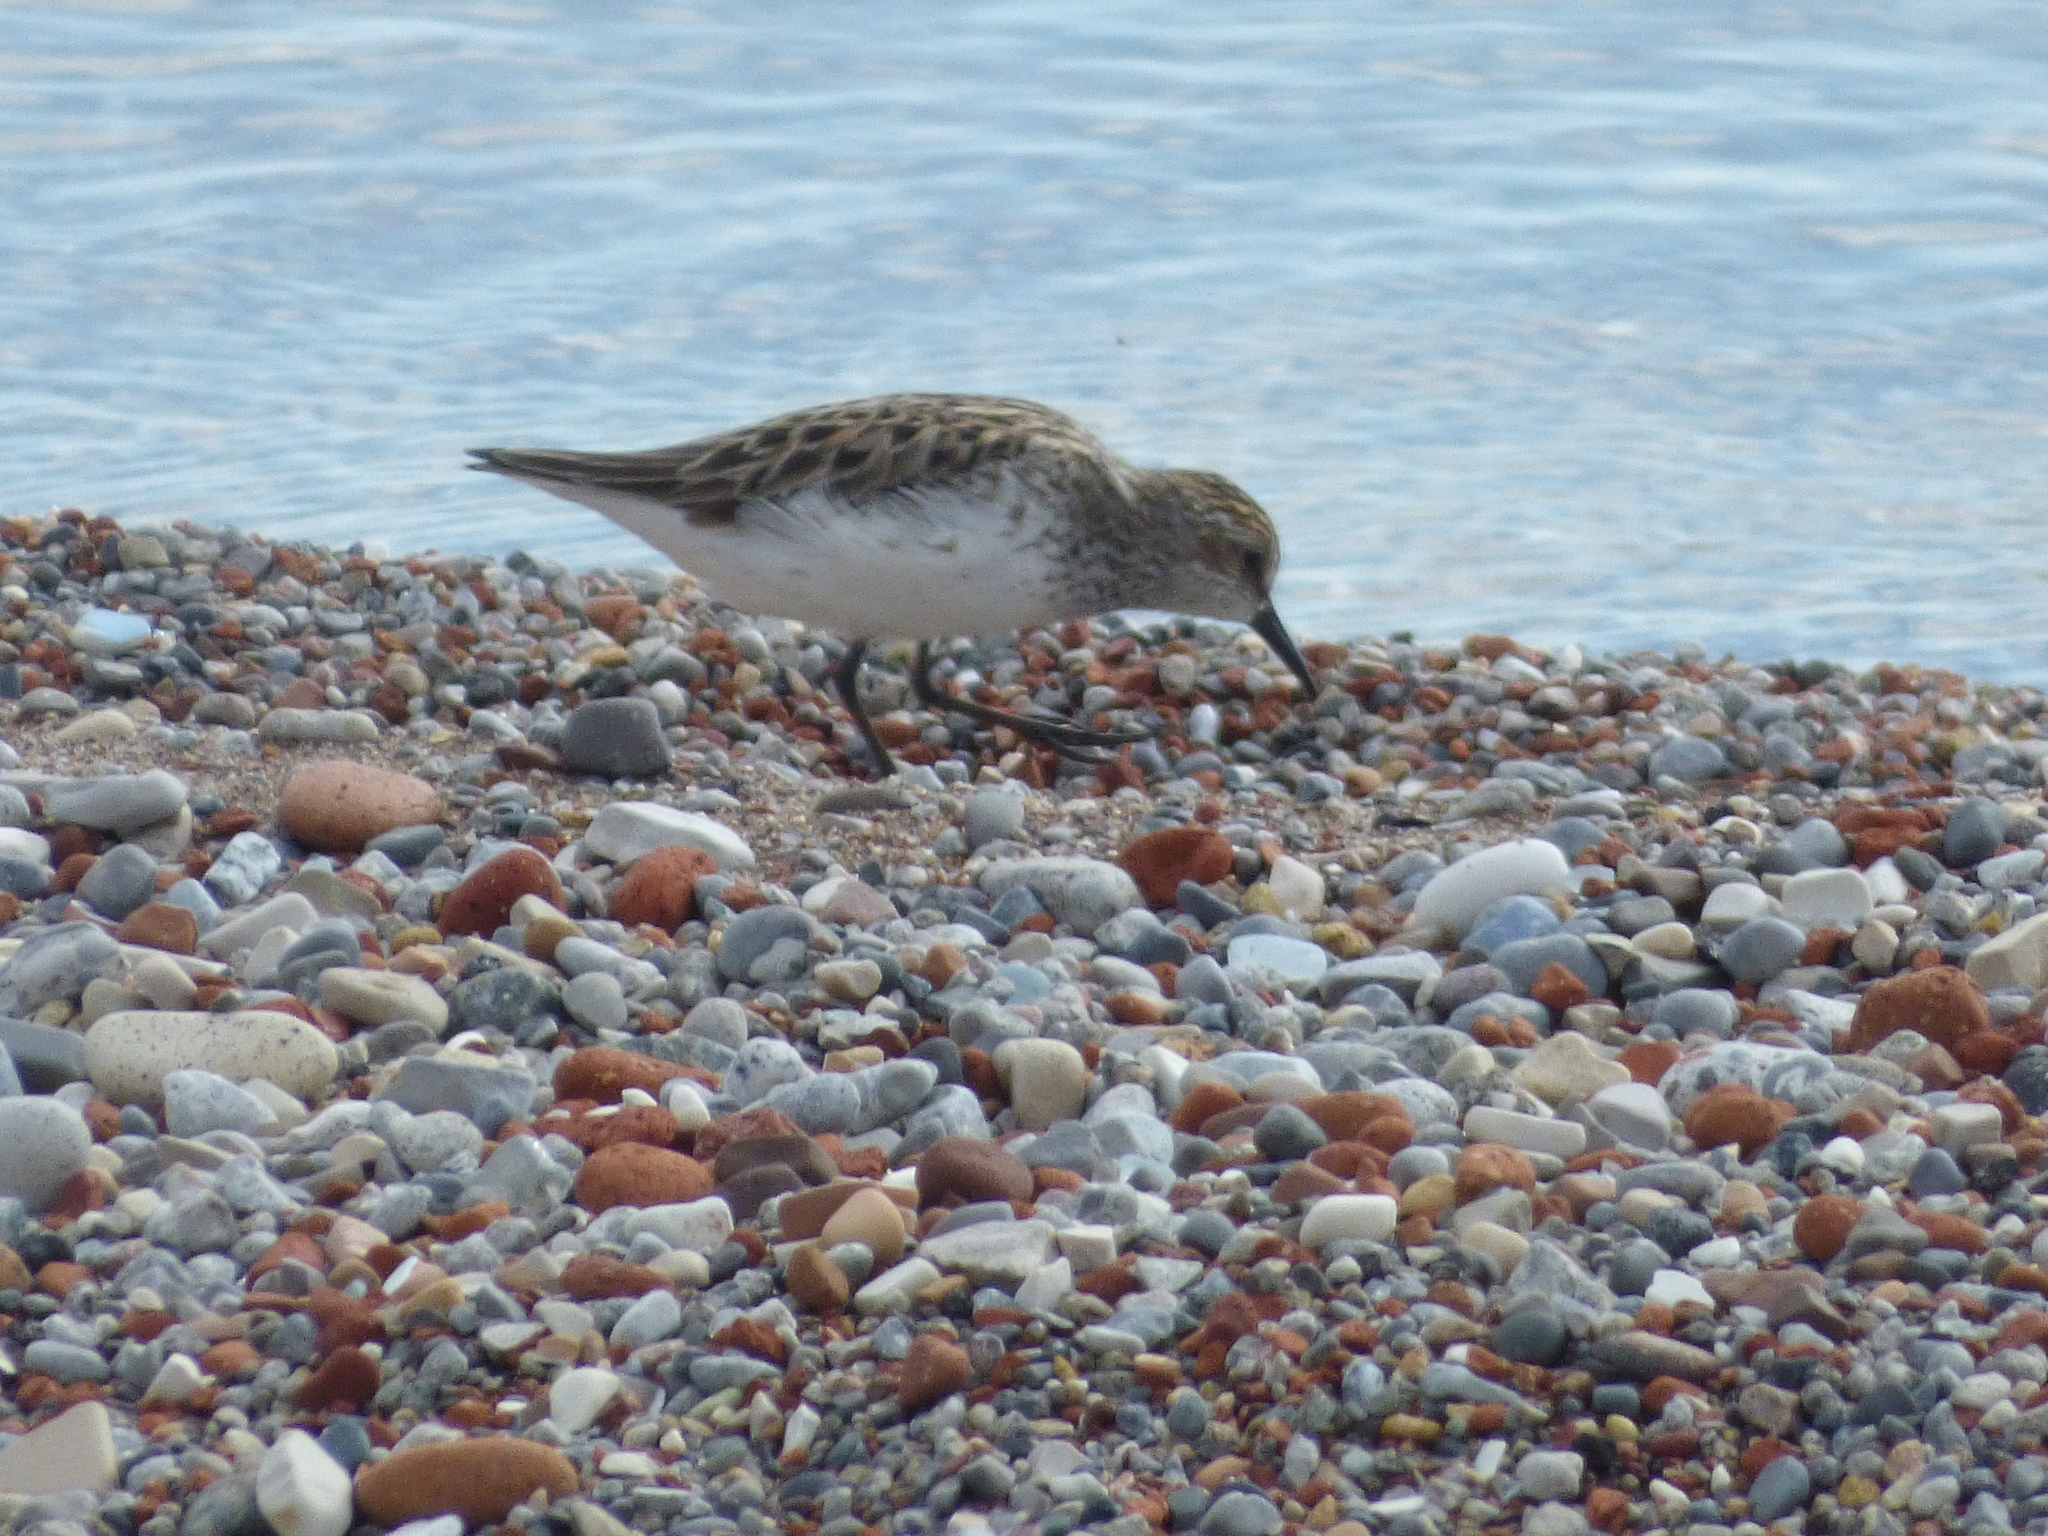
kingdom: Animalia
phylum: Chordata
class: Aves
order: Charadriiformes
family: Scolopacidae
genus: Calidris
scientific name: Calidris pusilla
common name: Semipalmated sandpiper
